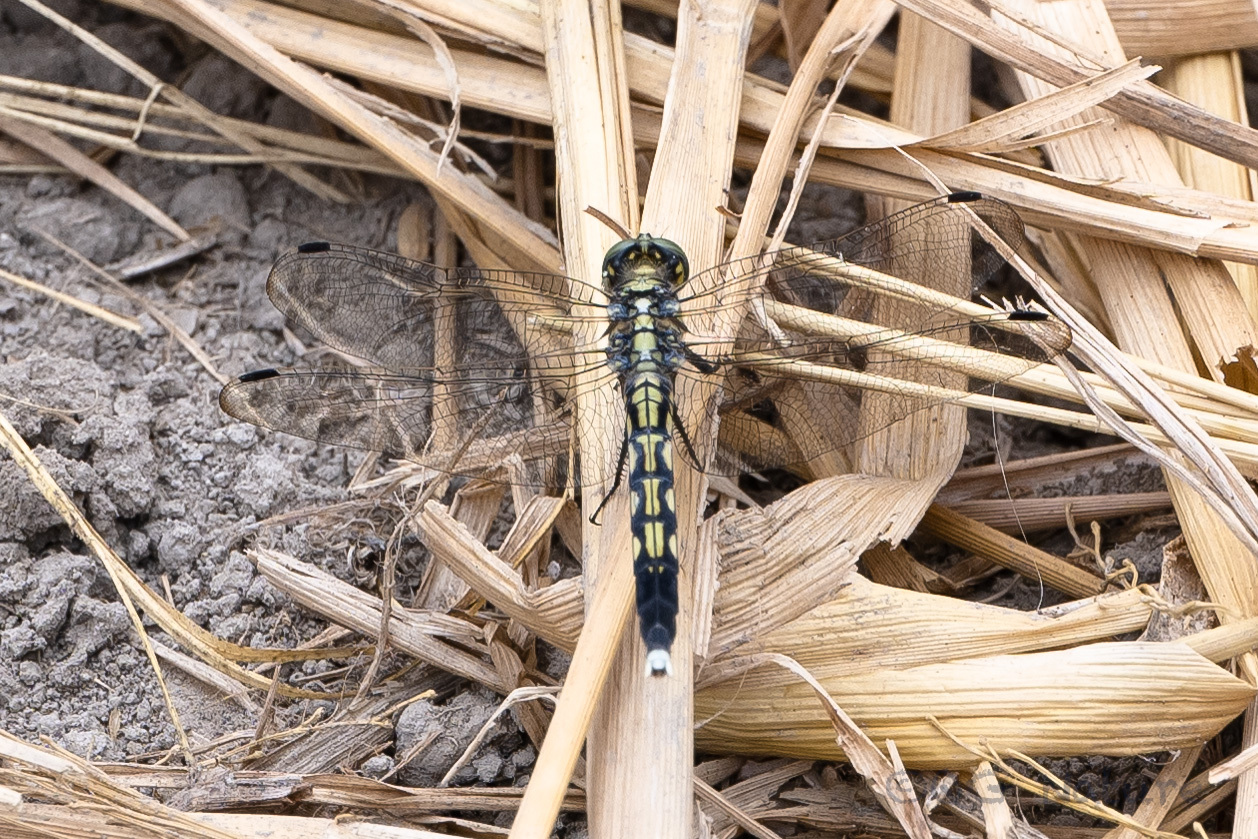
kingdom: Animalia
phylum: Arthropoda
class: Insecta
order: Odonata
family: Libellulidae
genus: Orthetrum
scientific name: Orthetrum albistylum
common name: White-tailed skimmer
